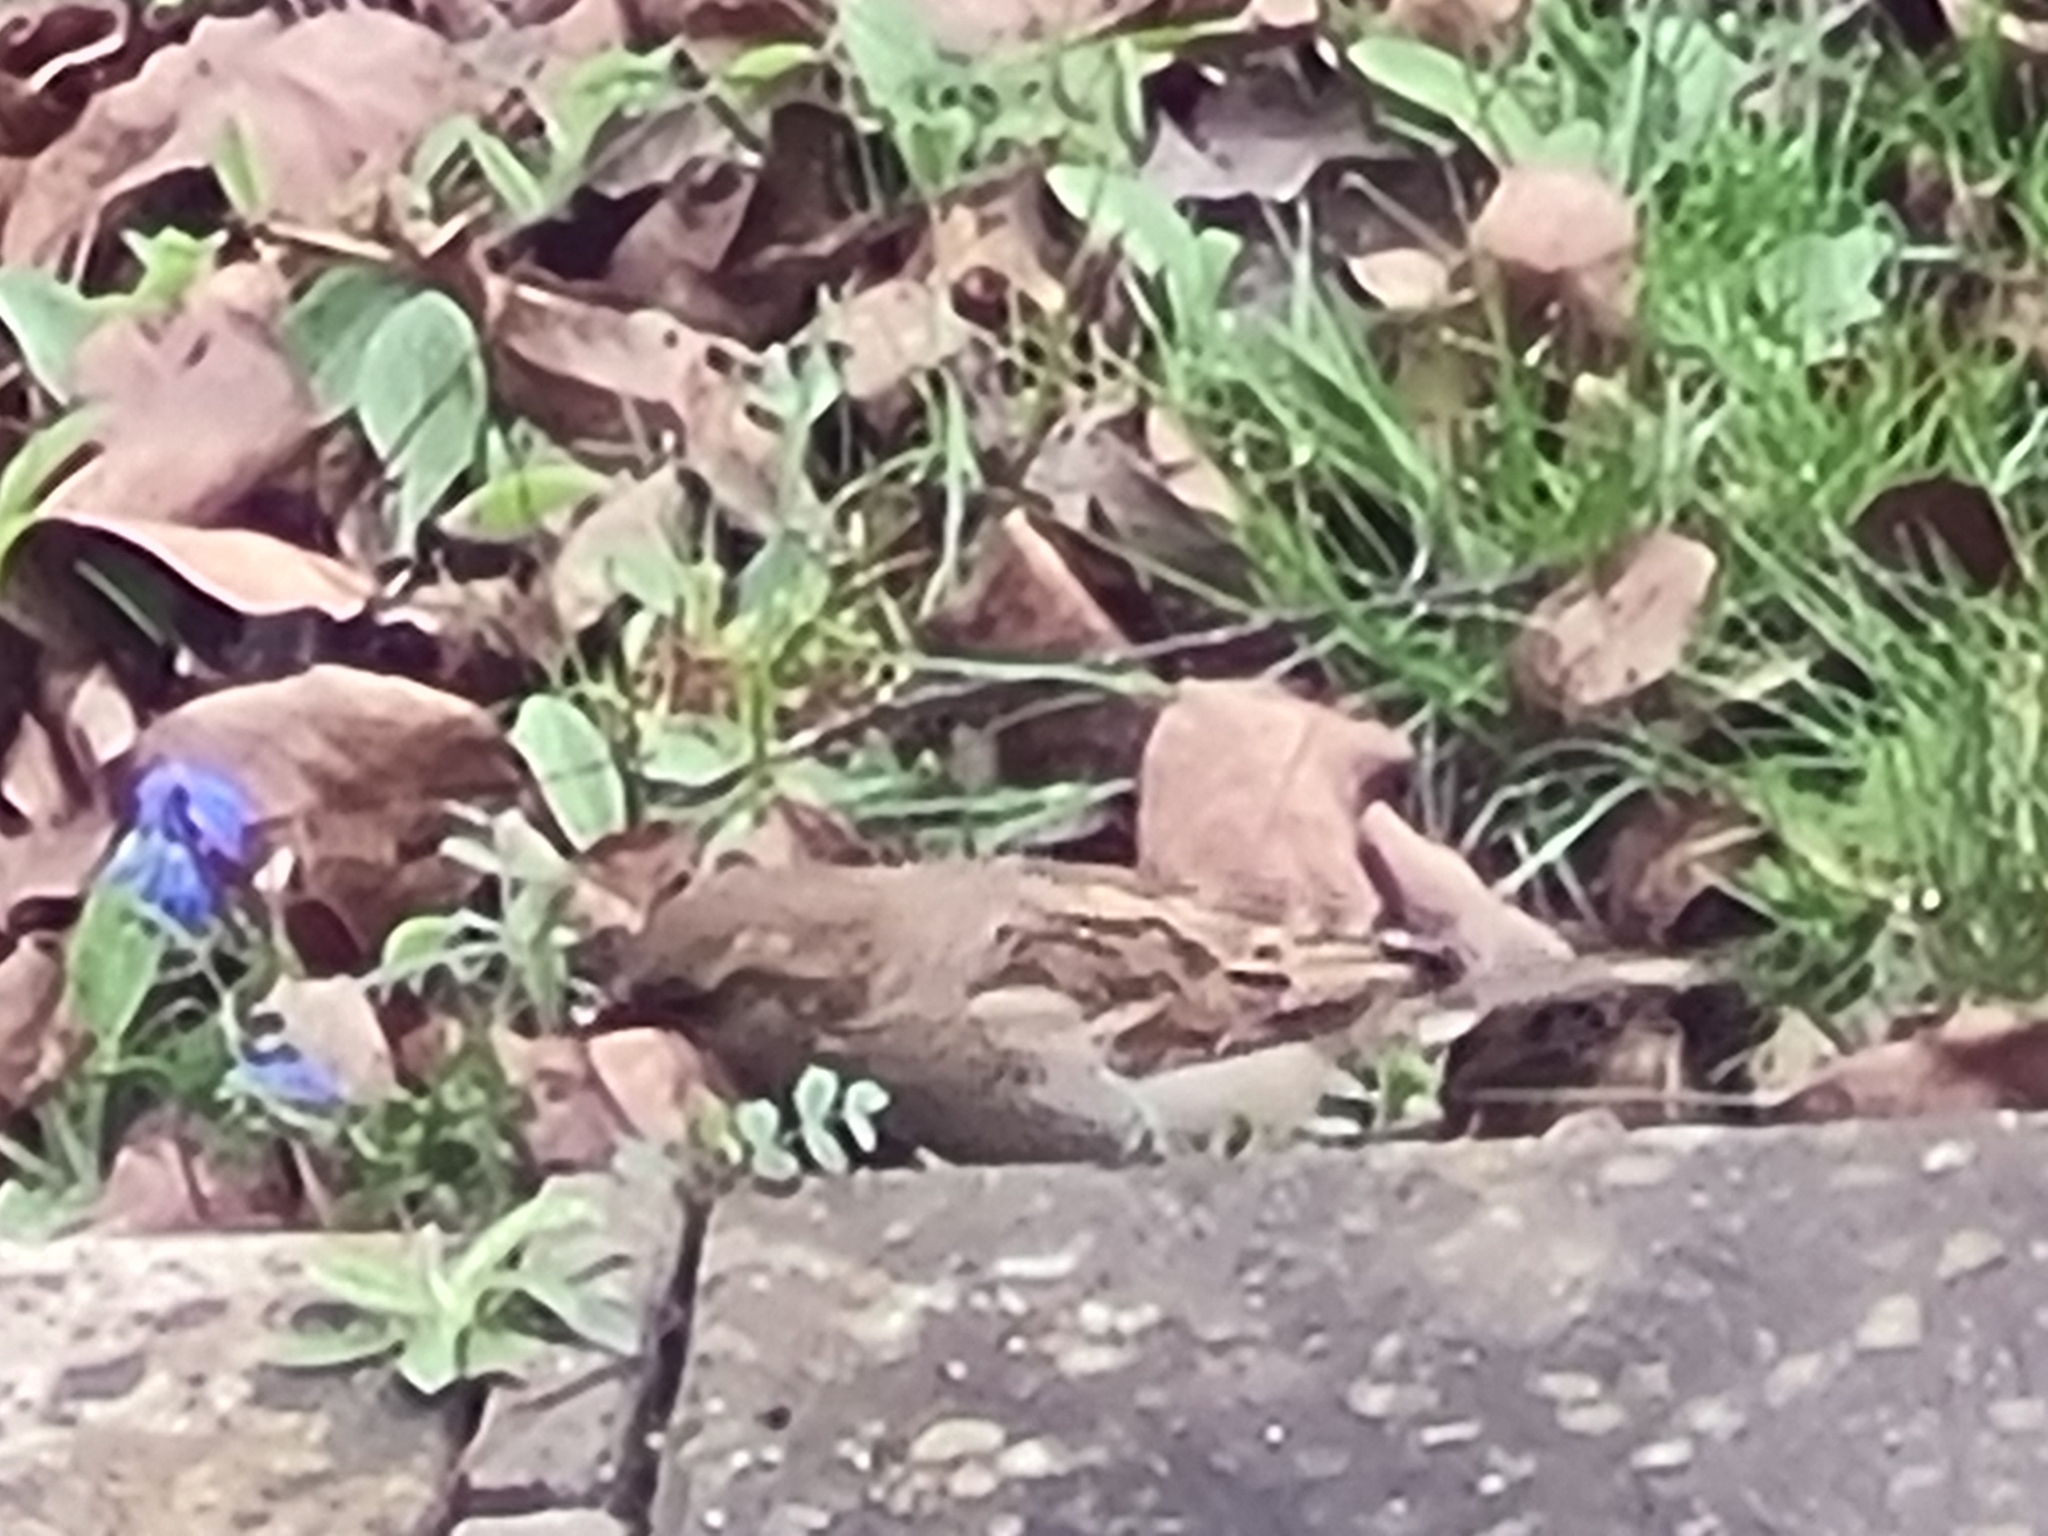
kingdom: Animalia
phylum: Chordata
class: Aves
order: Passeriformes
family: Passeridae
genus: Passer
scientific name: Passer domesticus
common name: House sparrow
